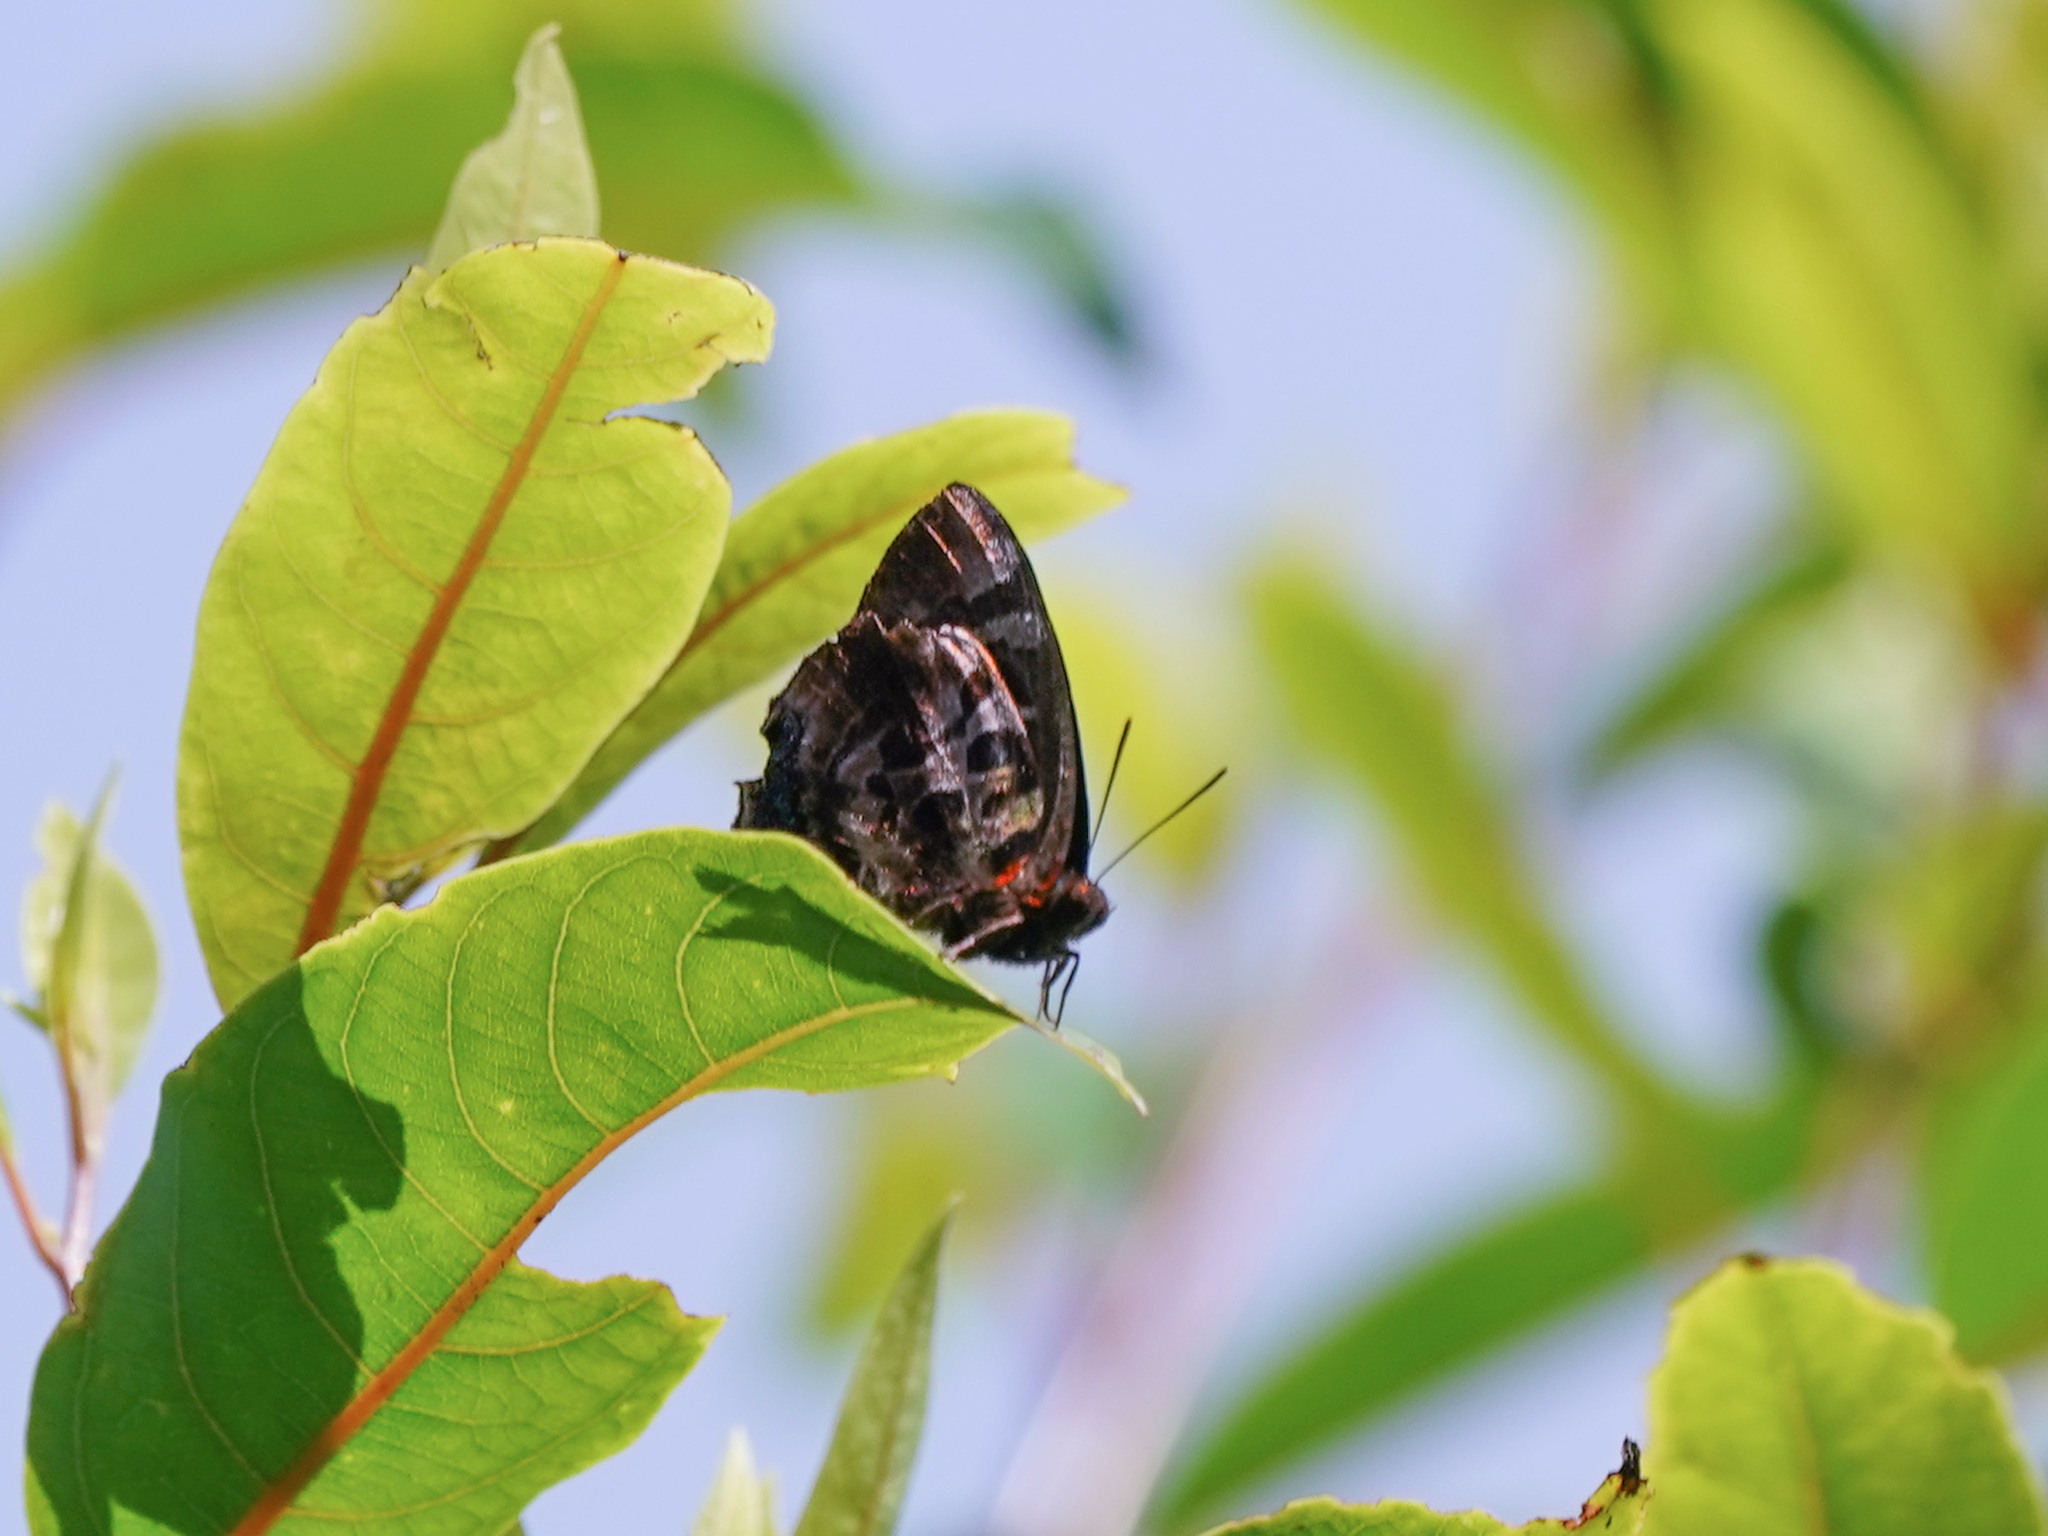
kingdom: Animalia
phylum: Arthropoda
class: Insecta
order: Lepidoptera
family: Lycaenidae
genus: Flos
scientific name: Flos
